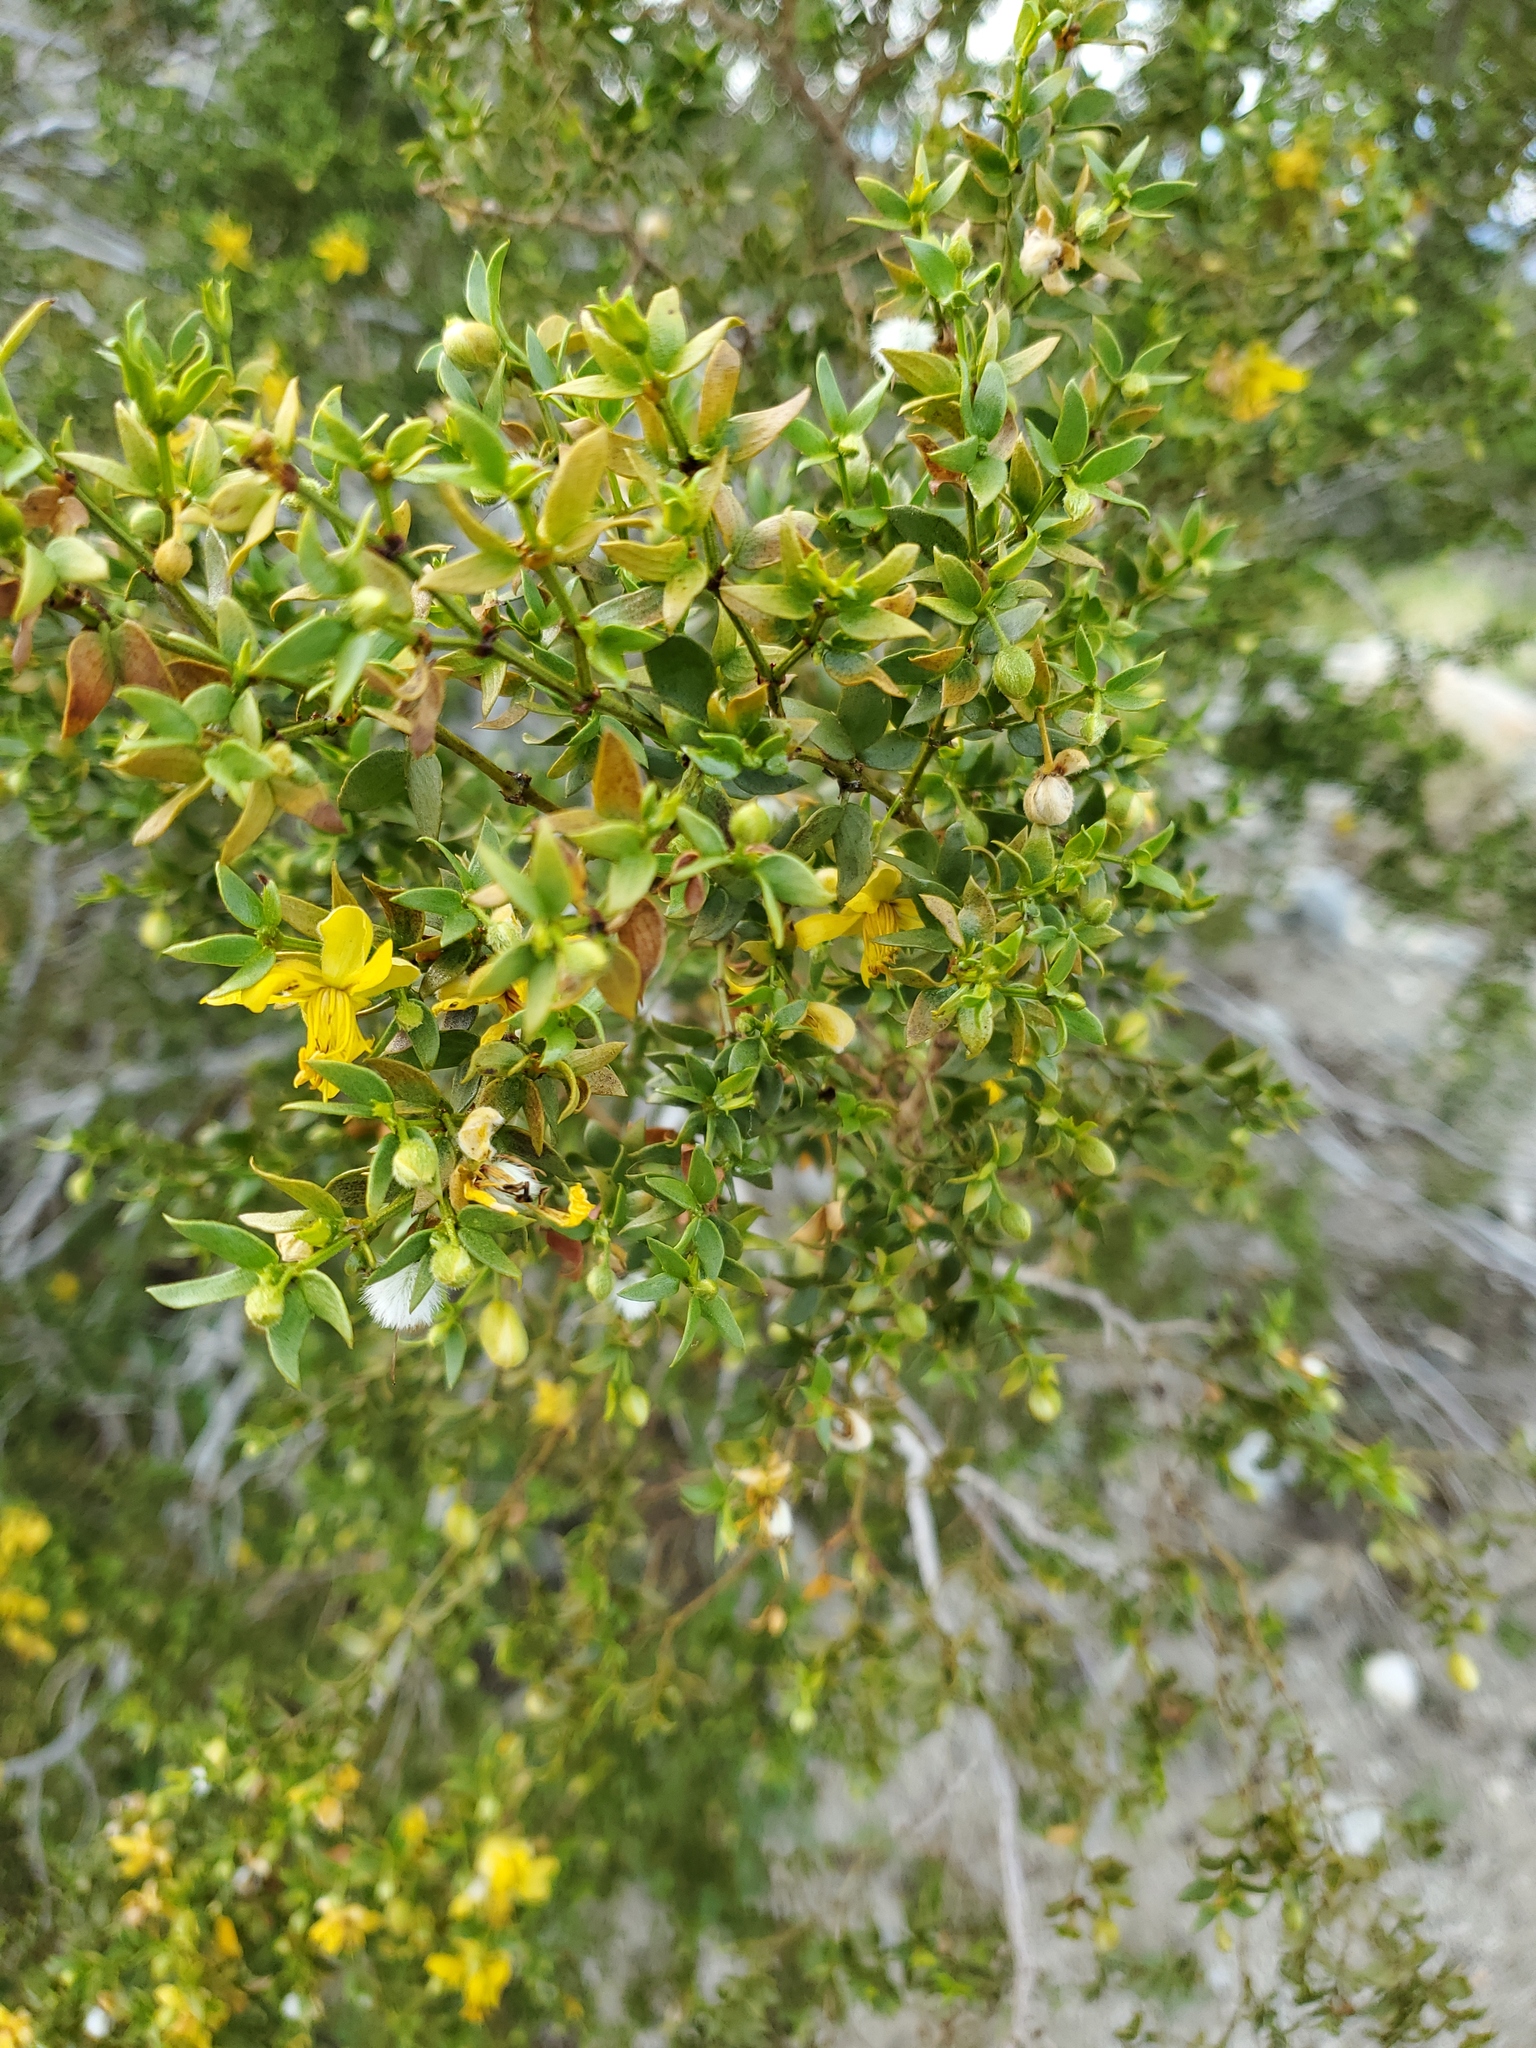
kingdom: Plantae
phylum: Tracheophyta
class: Magnoliopsida
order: Zygophyllales
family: Zygophyllaceae
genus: Larrea
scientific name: Larrea tridentata
